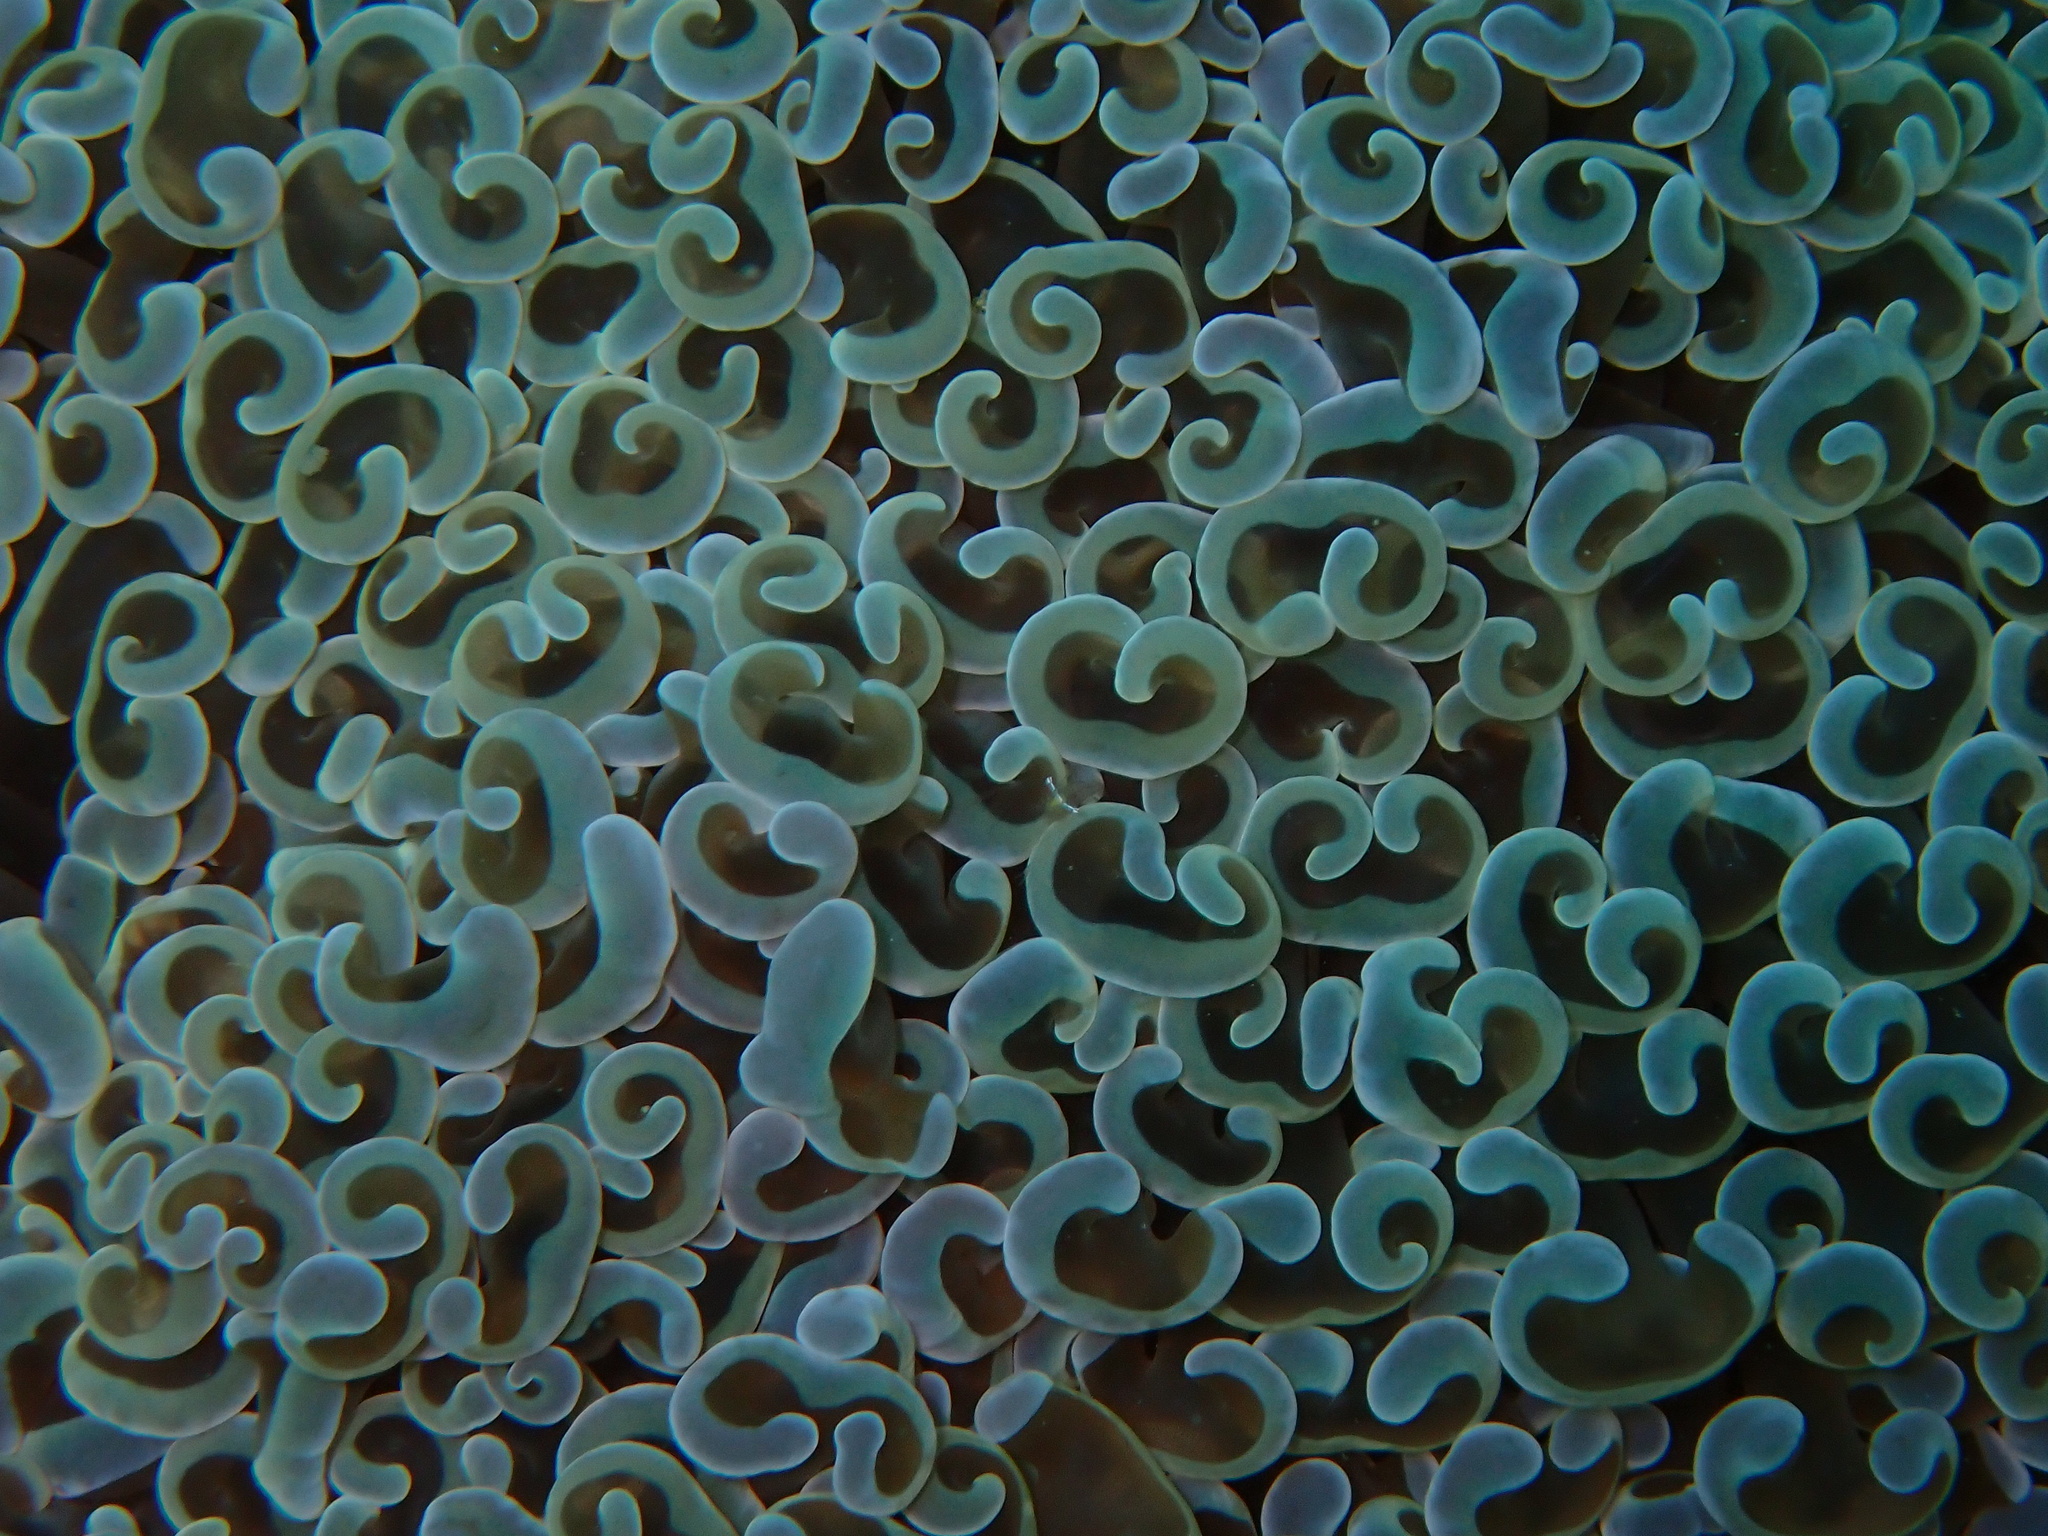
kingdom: Animalia
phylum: Cnidaria
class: Anthozoa
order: Scleractinia
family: Euphylliidae
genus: Fimbriaphyllia
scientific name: Fimbriaphyllia ancora
